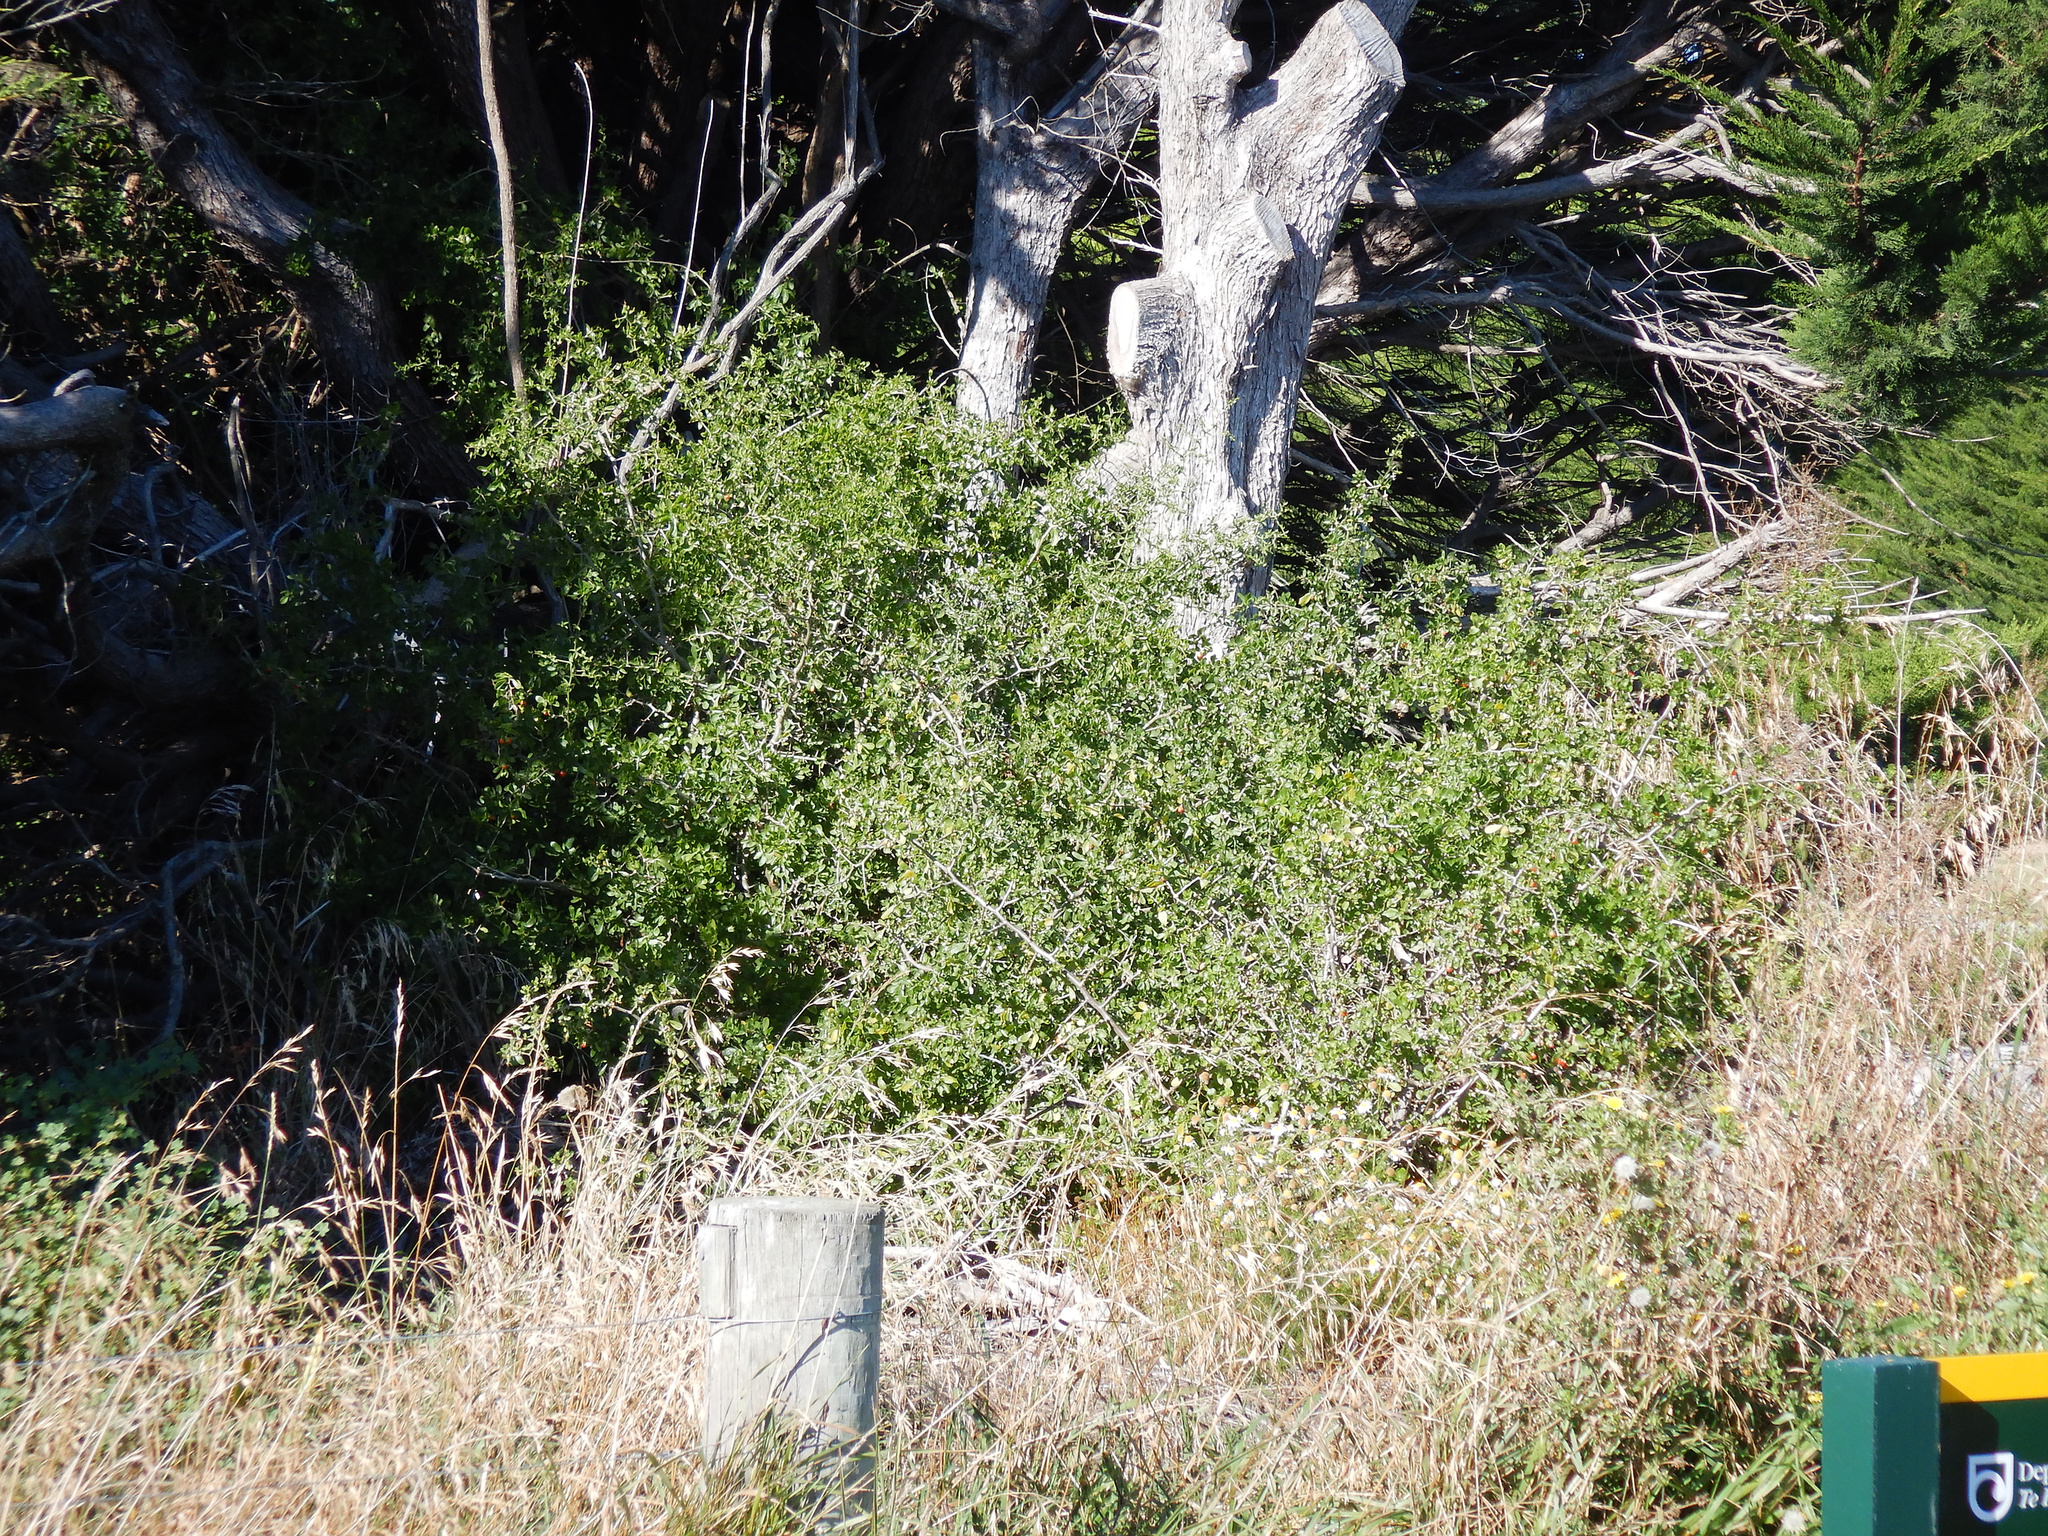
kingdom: Plantae
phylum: Tracheophyta
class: Magnoliopsida
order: Solanales
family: Solanaceae
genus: Lycium
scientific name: Lycium ferocissimum
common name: African boxthorn
